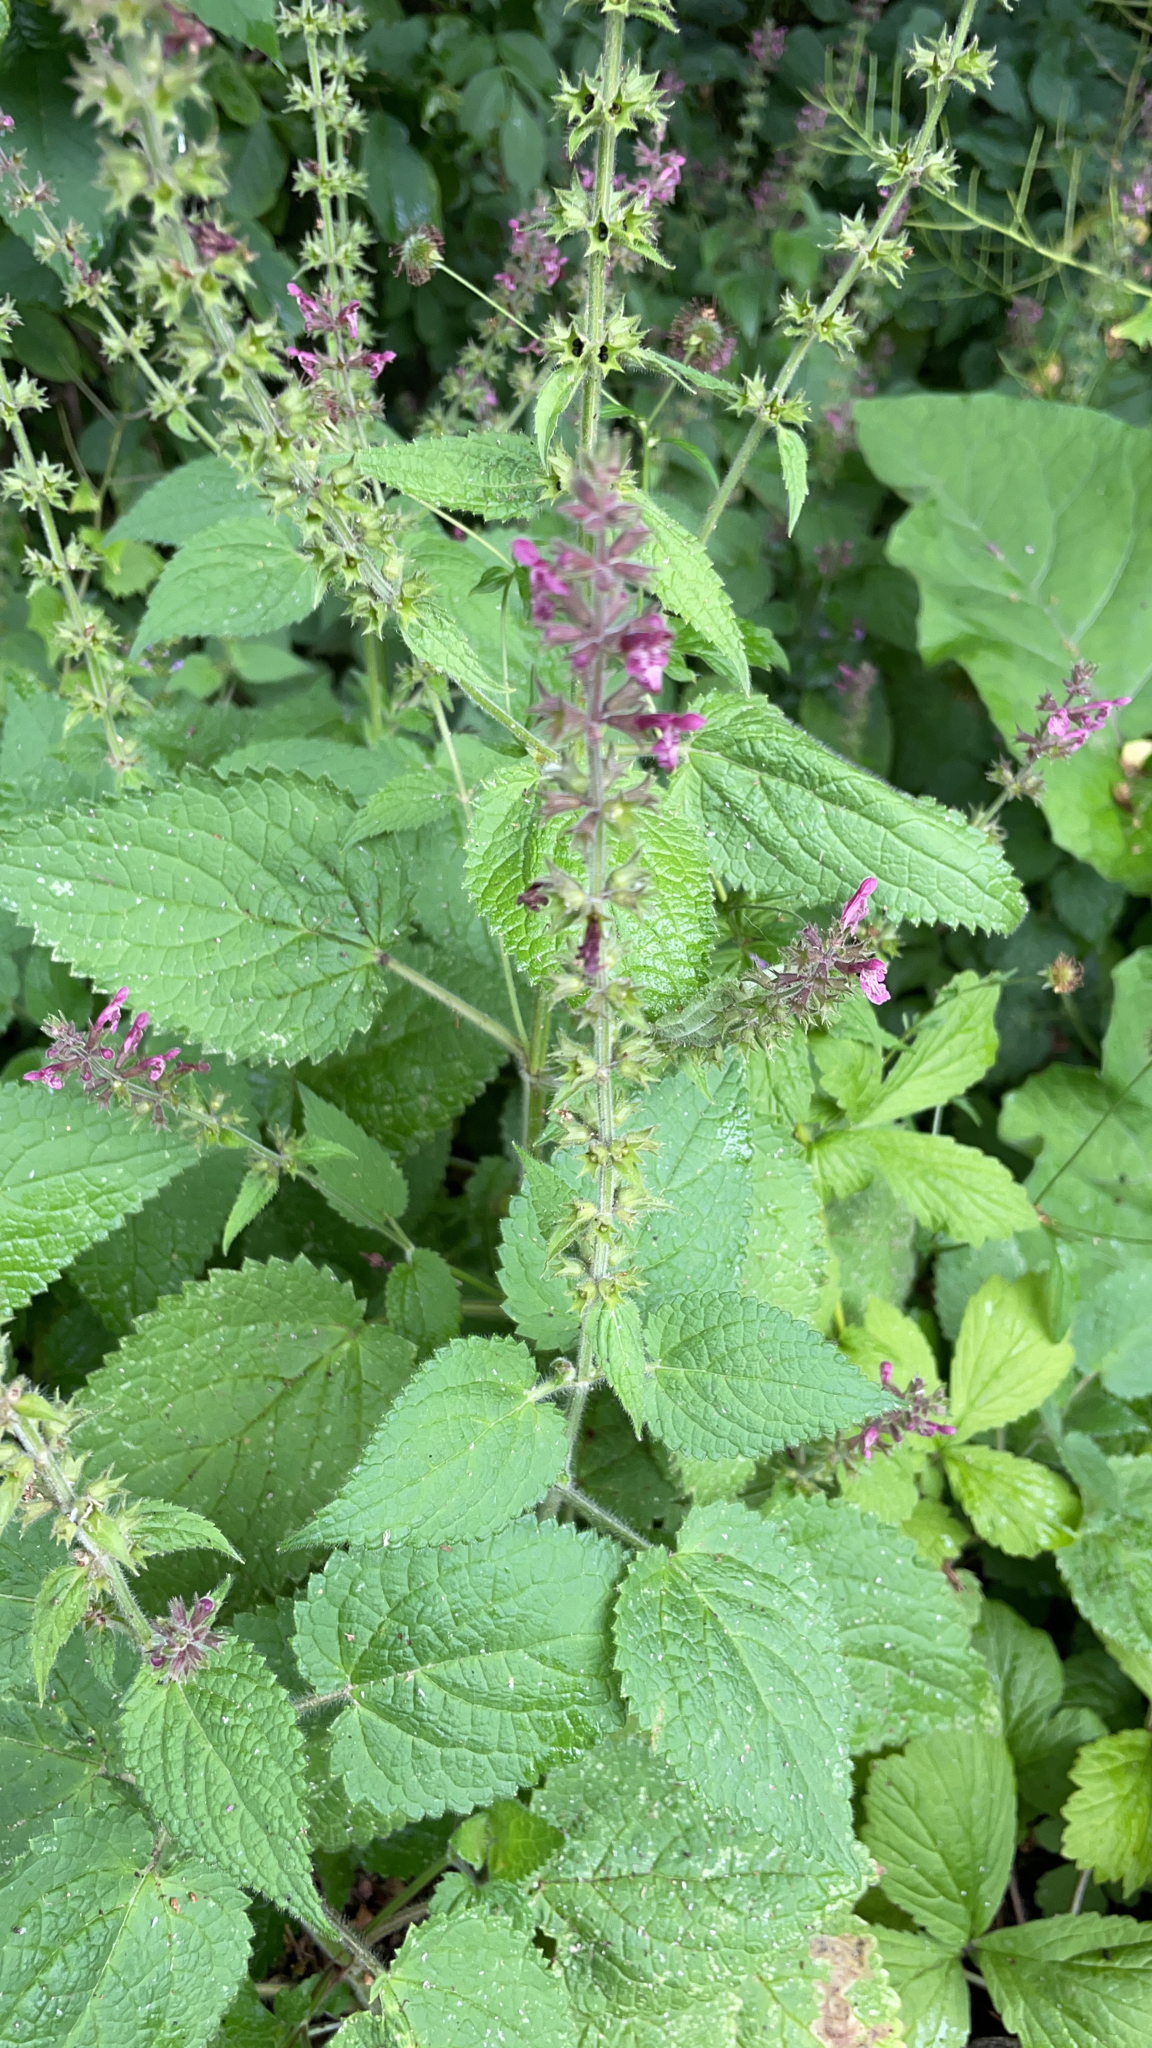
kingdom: Plantae
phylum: Tracheophyta
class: Magnoliopsida
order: Lamiales
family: Lamiaceae
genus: Stachys
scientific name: Stachys sylvatica
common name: Hedge woundwort
